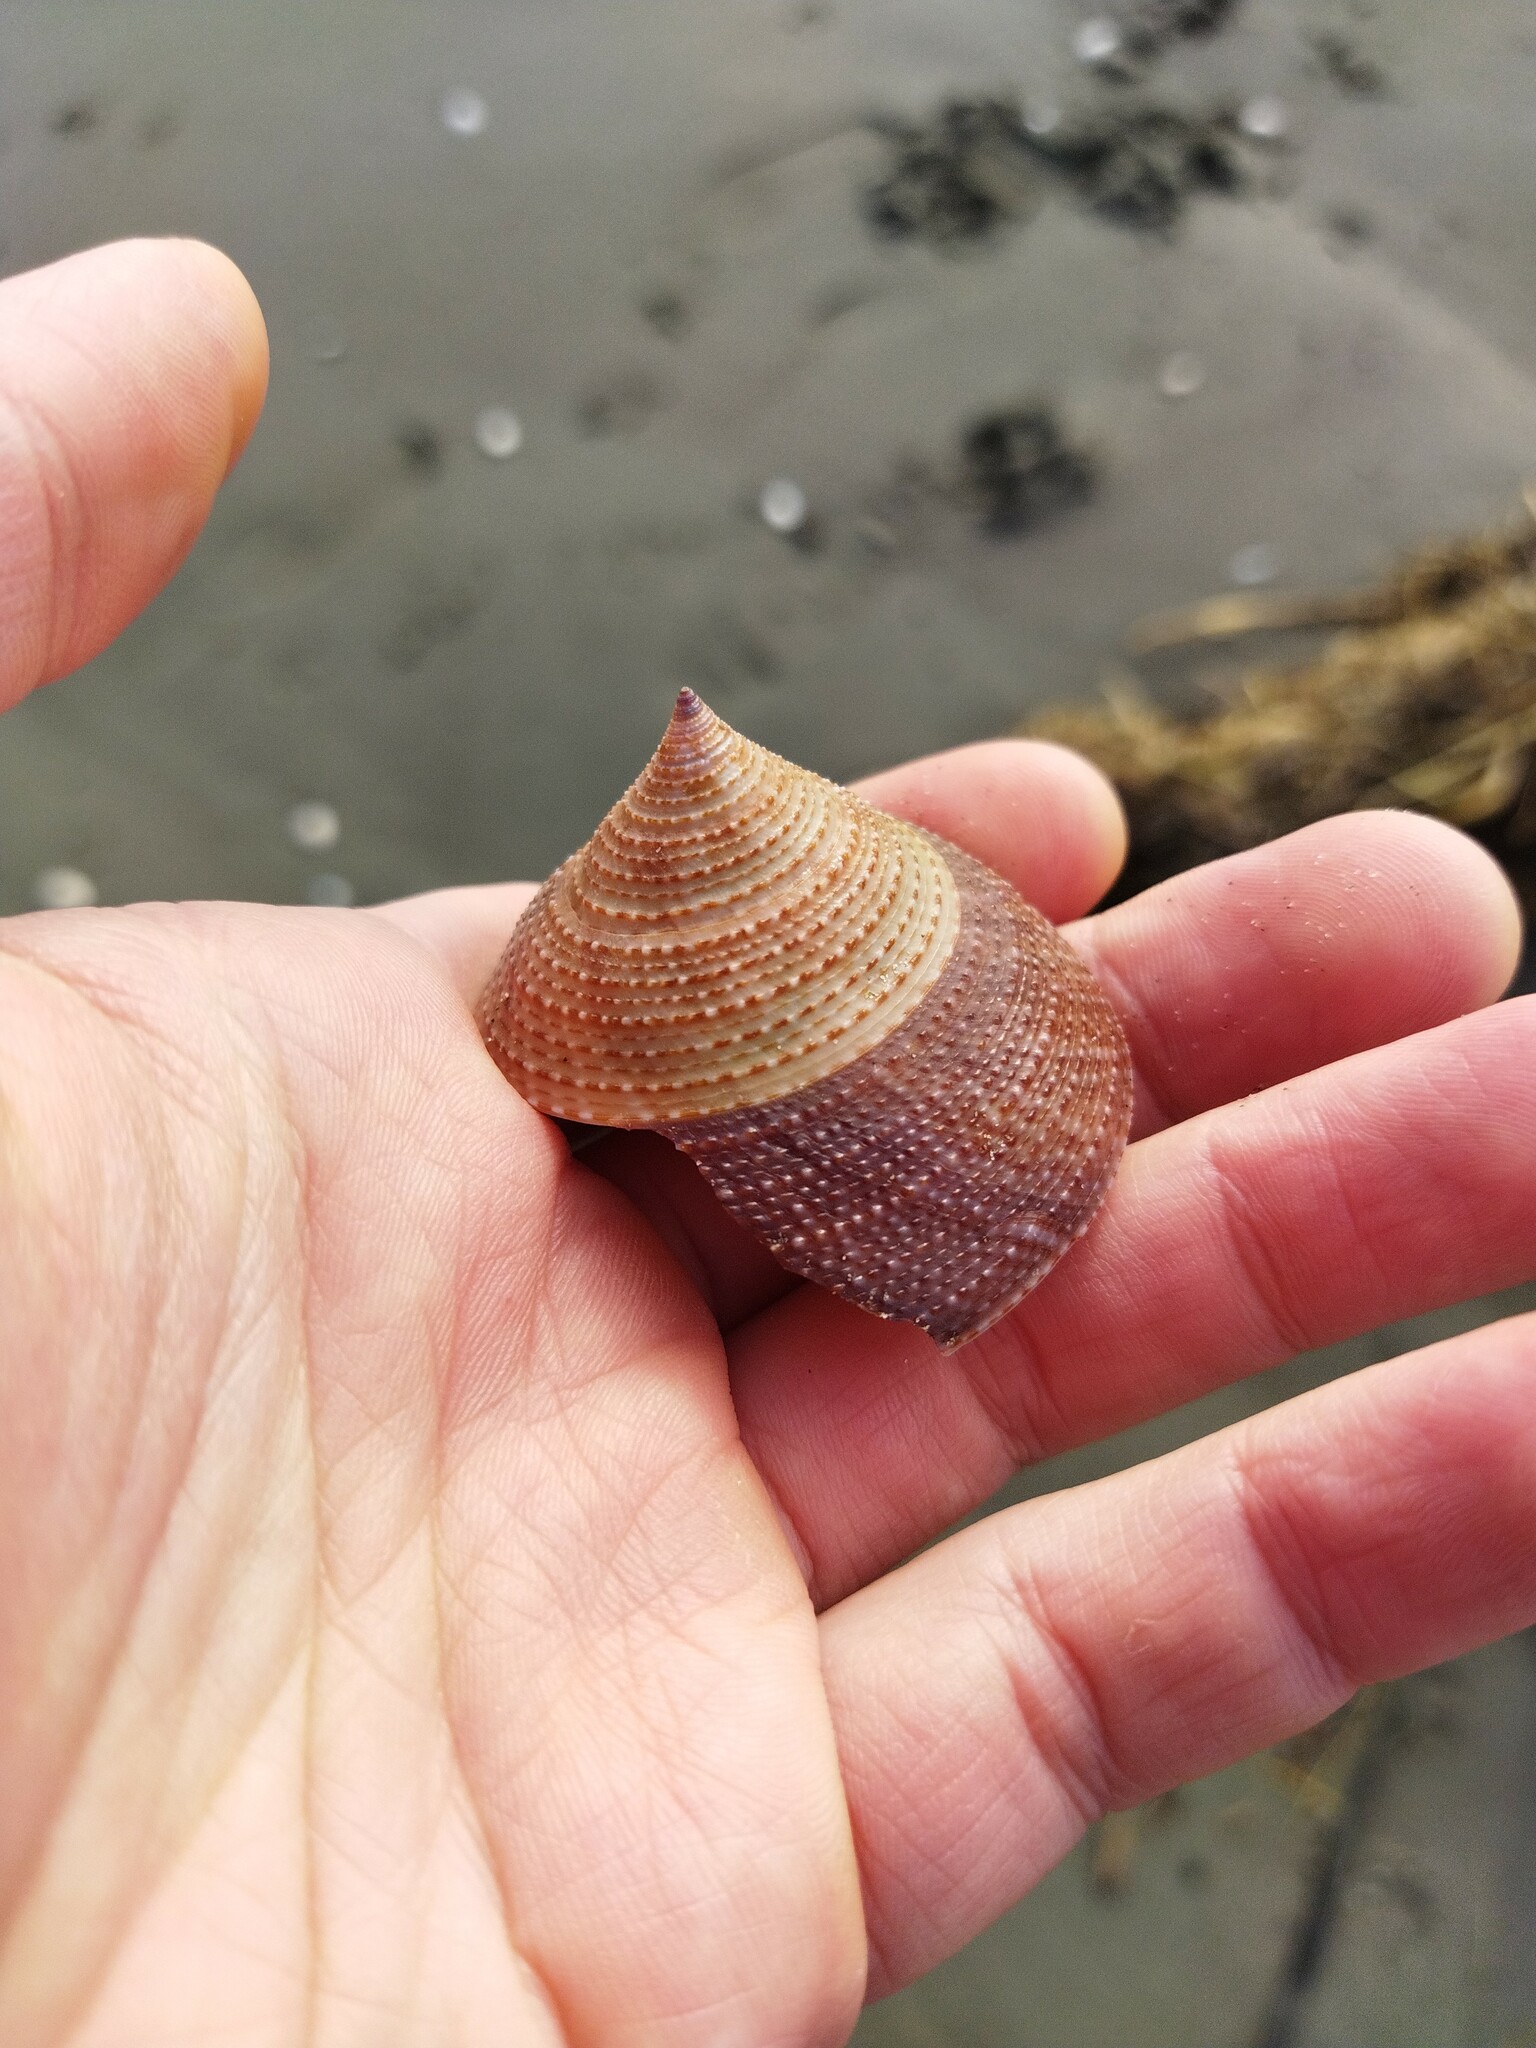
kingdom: Animalia
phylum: Mollusca
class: Gastropoda
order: Trochida
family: Calliostomatidae
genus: Maurea
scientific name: Maurea selecta
